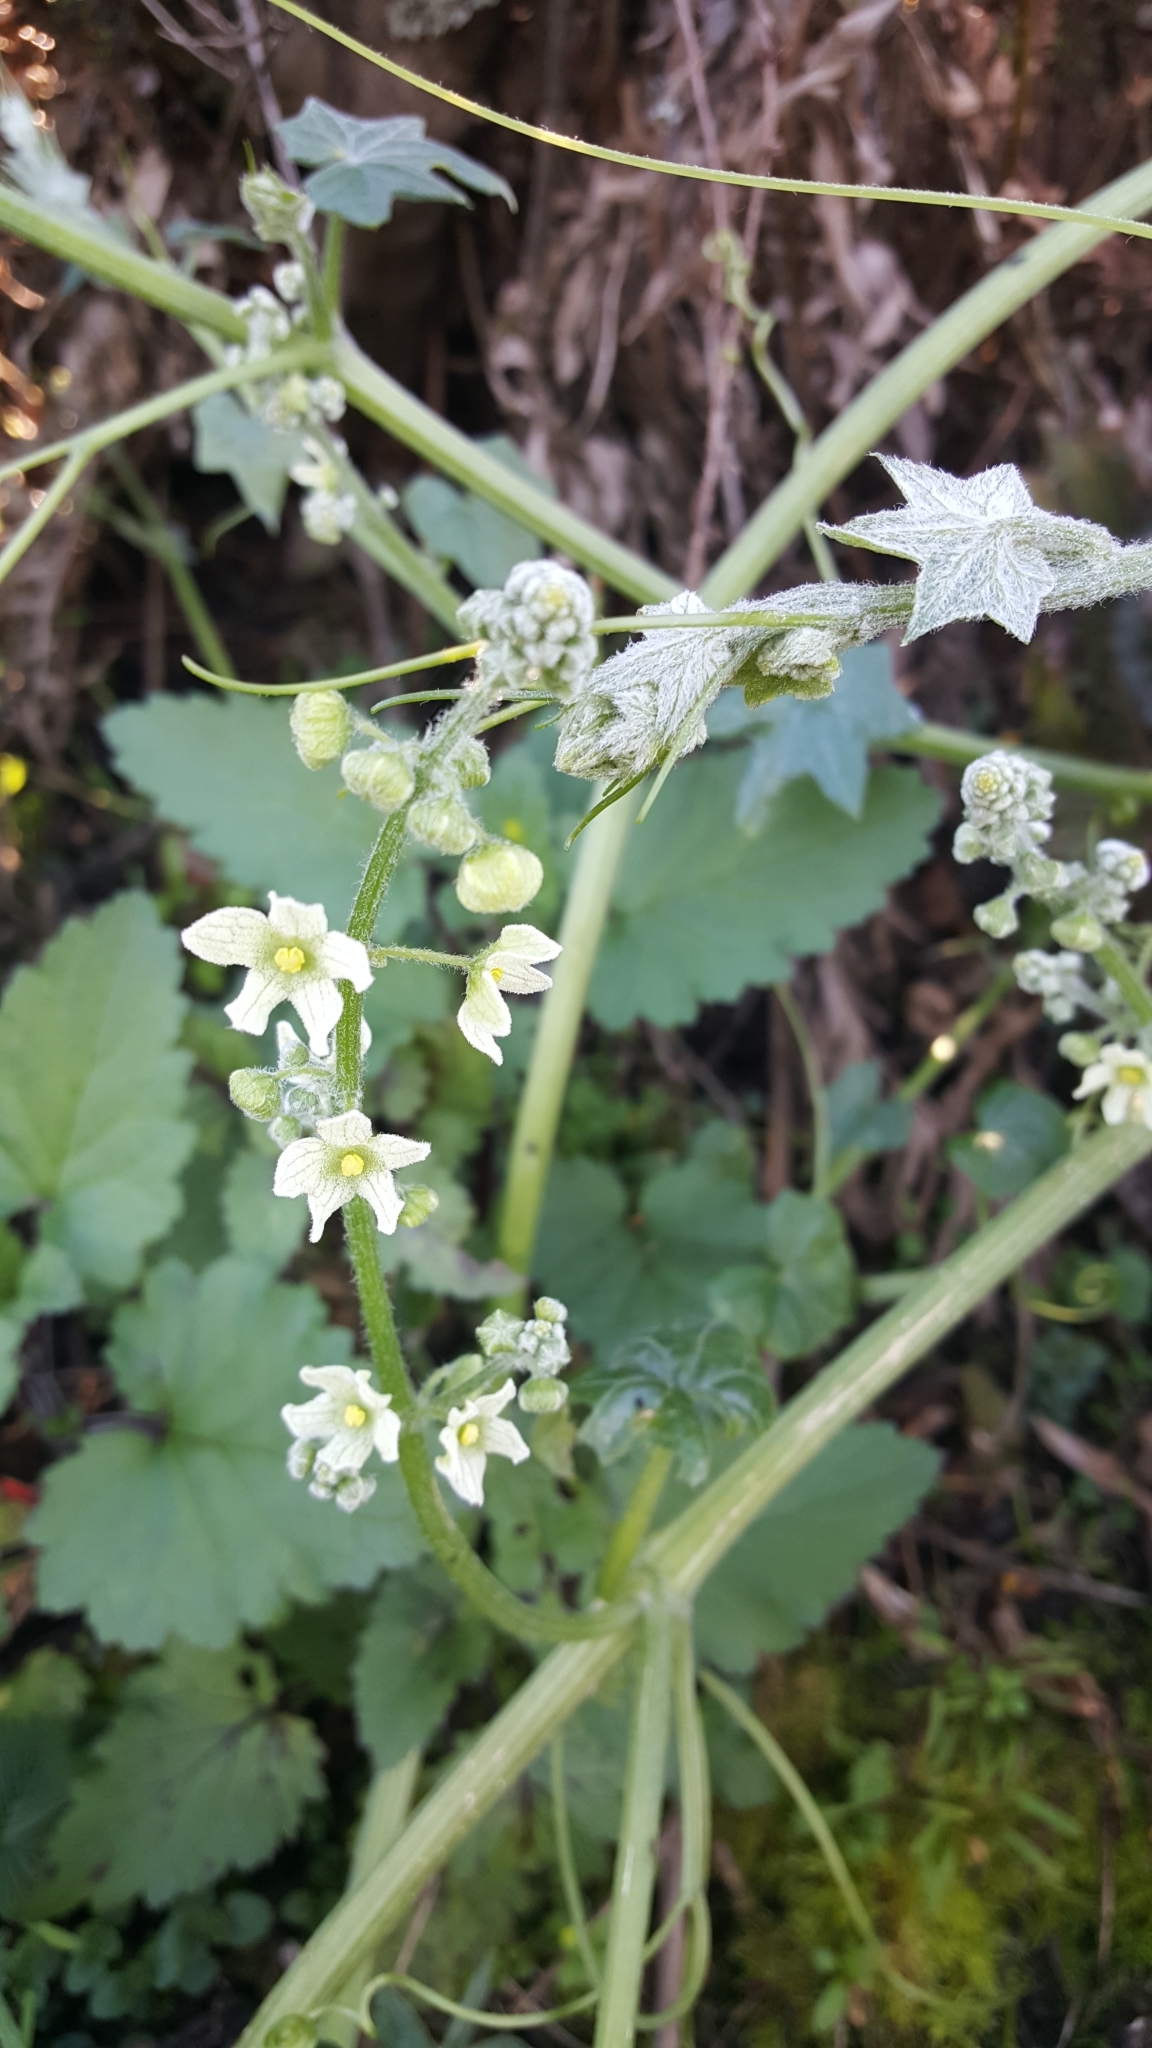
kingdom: Plantae
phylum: Tracheophyta
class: Magnoliopsida
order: Cucurbitales
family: Cucurbitaceae
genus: Marah
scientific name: Marah fabacea
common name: California manroot
